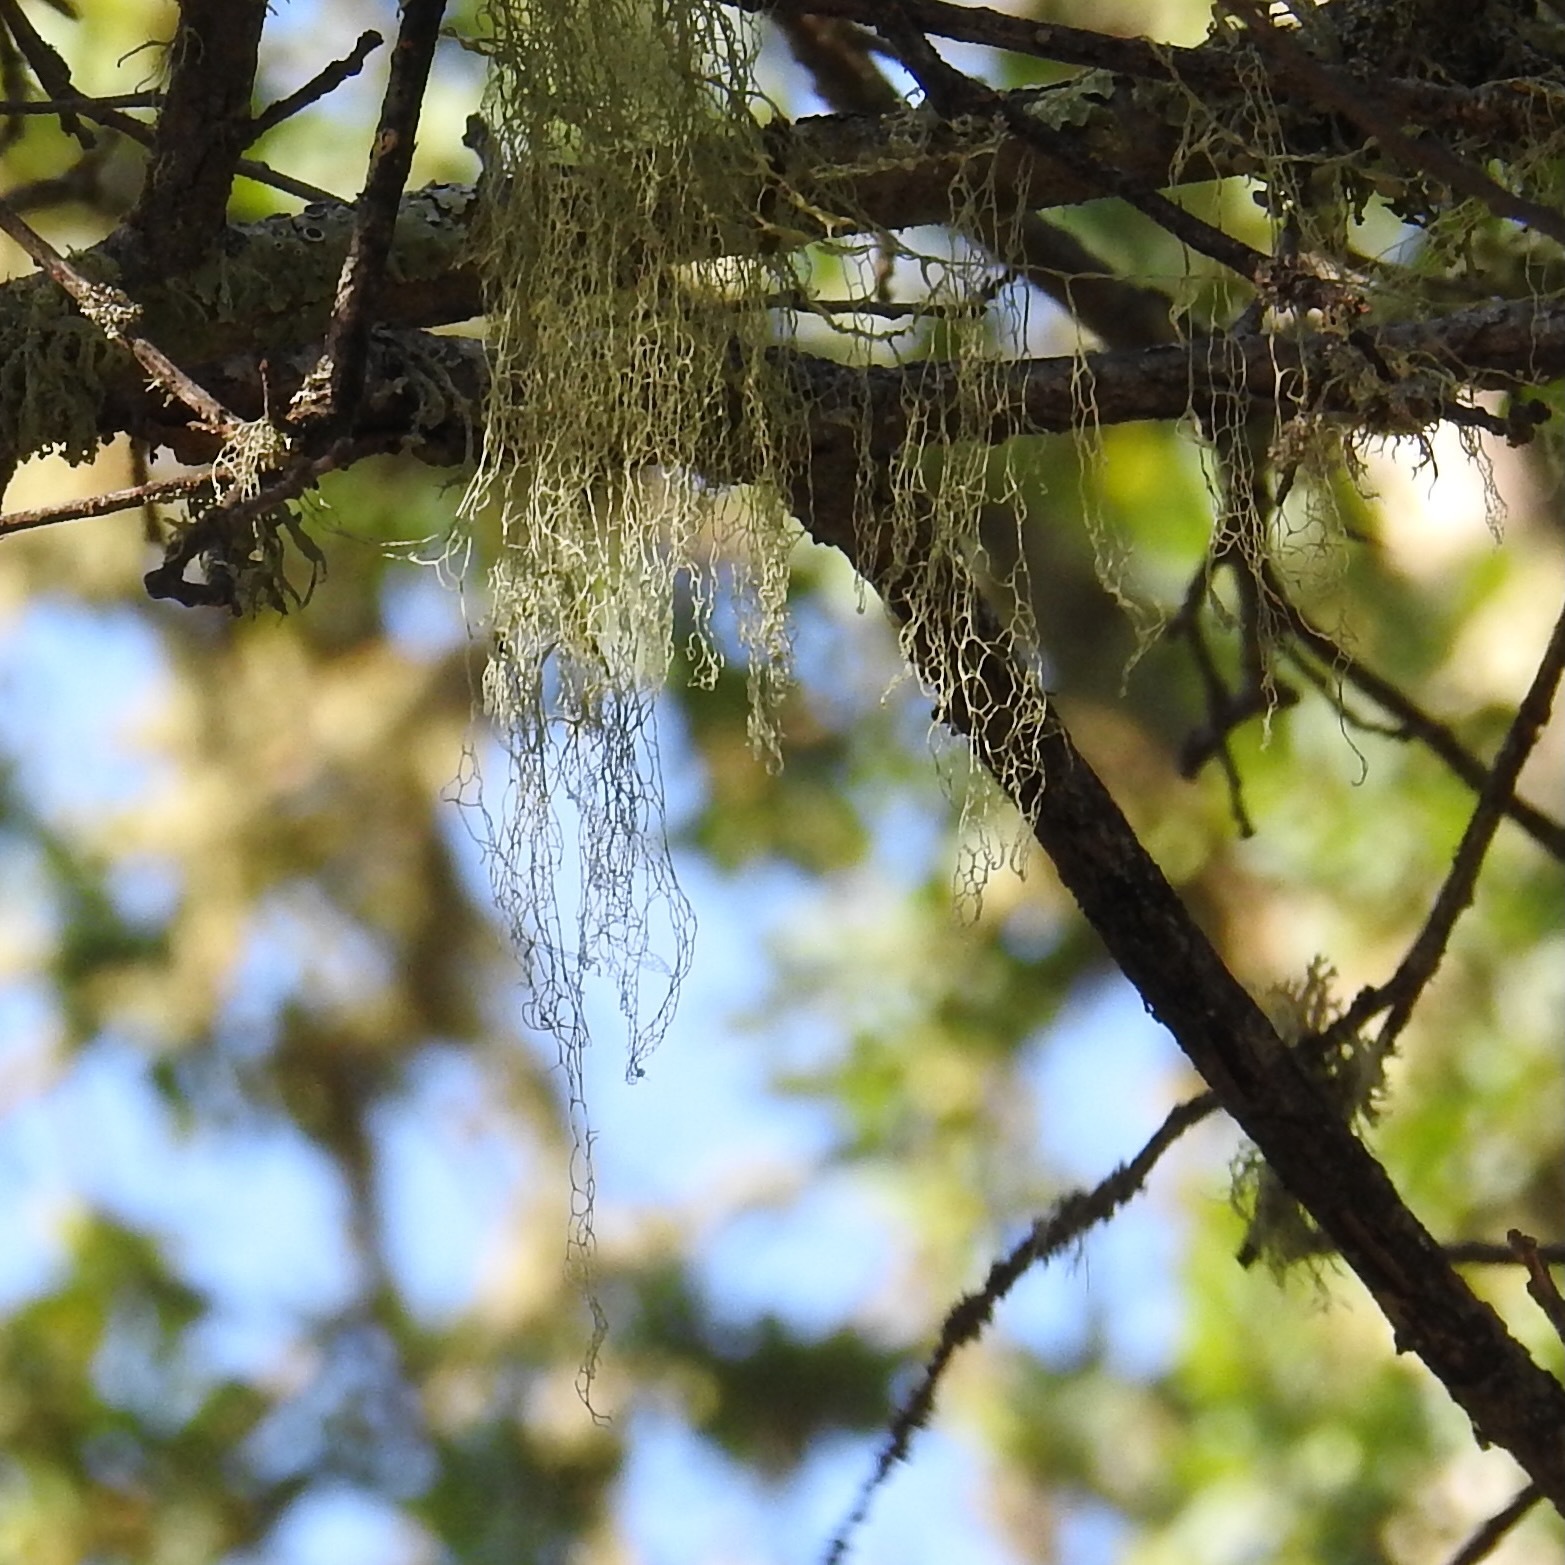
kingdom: Fungi
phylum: Ascomycota
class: Lecanoromycetes
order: Lecanorales
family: Ramalinaceae
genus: Ramalina
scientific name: Ramalina menziesii
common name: Lace lichen
